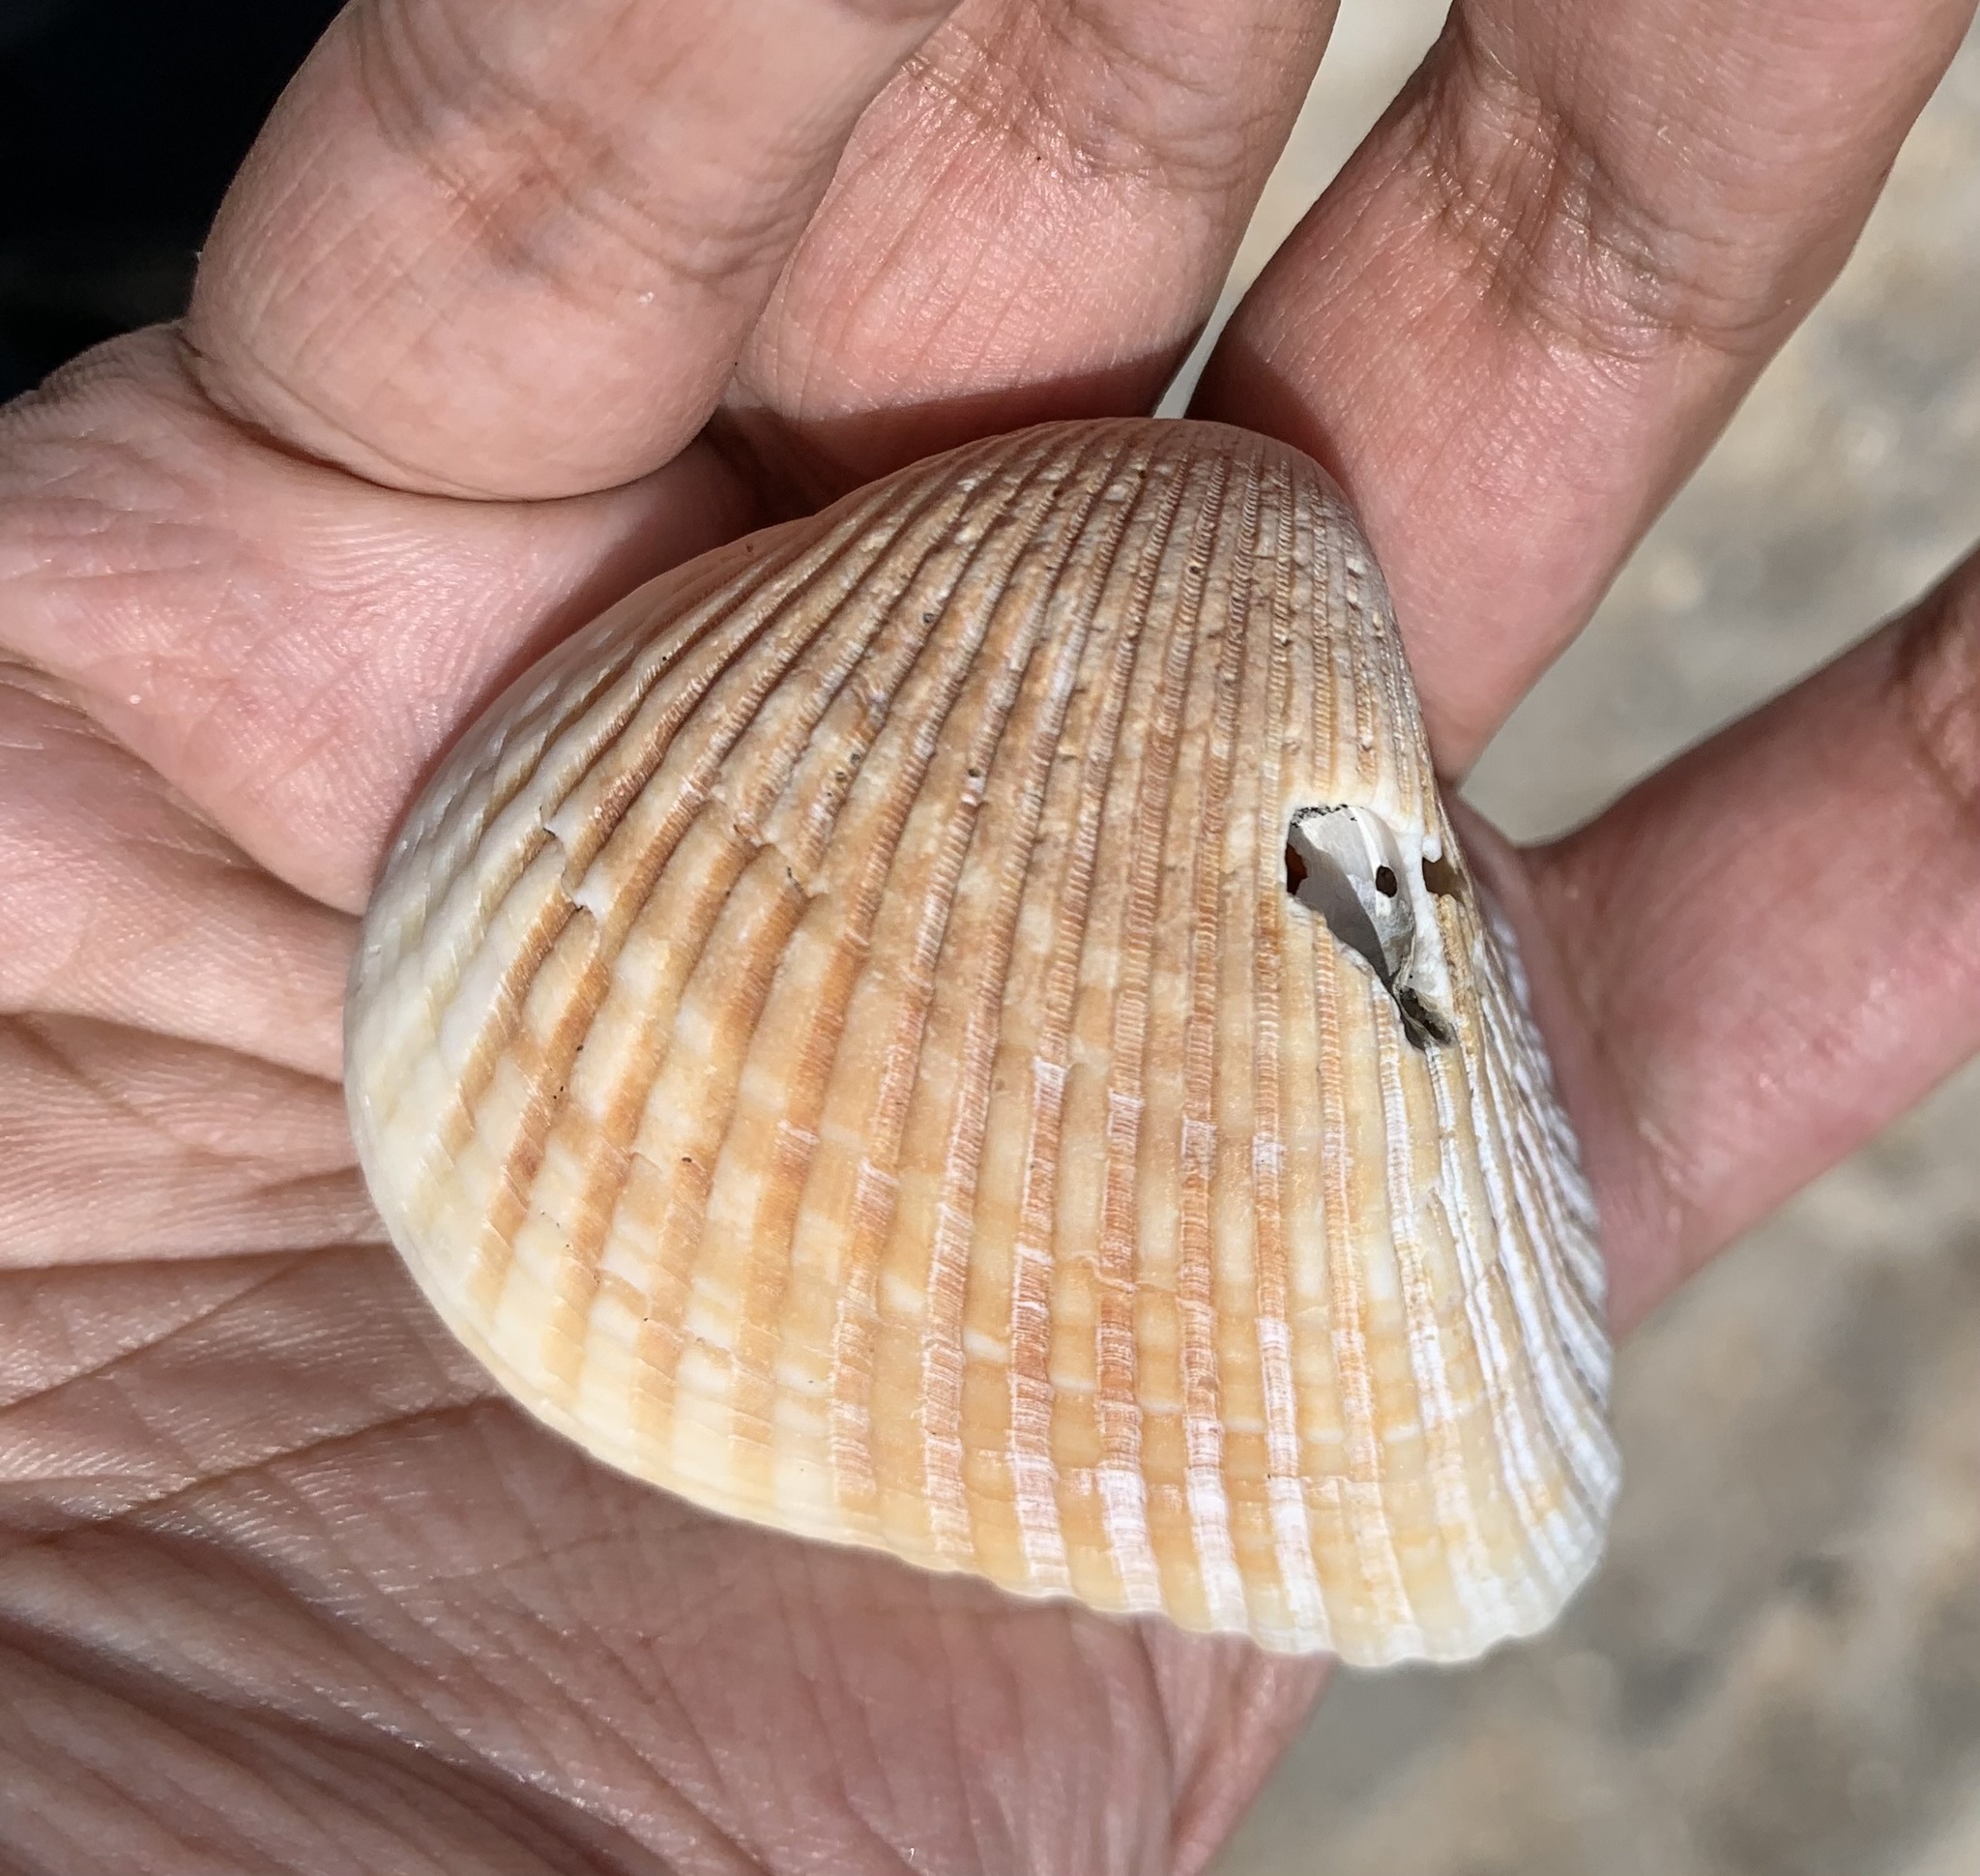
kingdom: Animalia
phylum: Mollusca
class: Bivalvia
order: Arcida
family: Noetiidae
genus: Noetia
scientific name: Noetia ponderosa
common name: Ponderous ark
